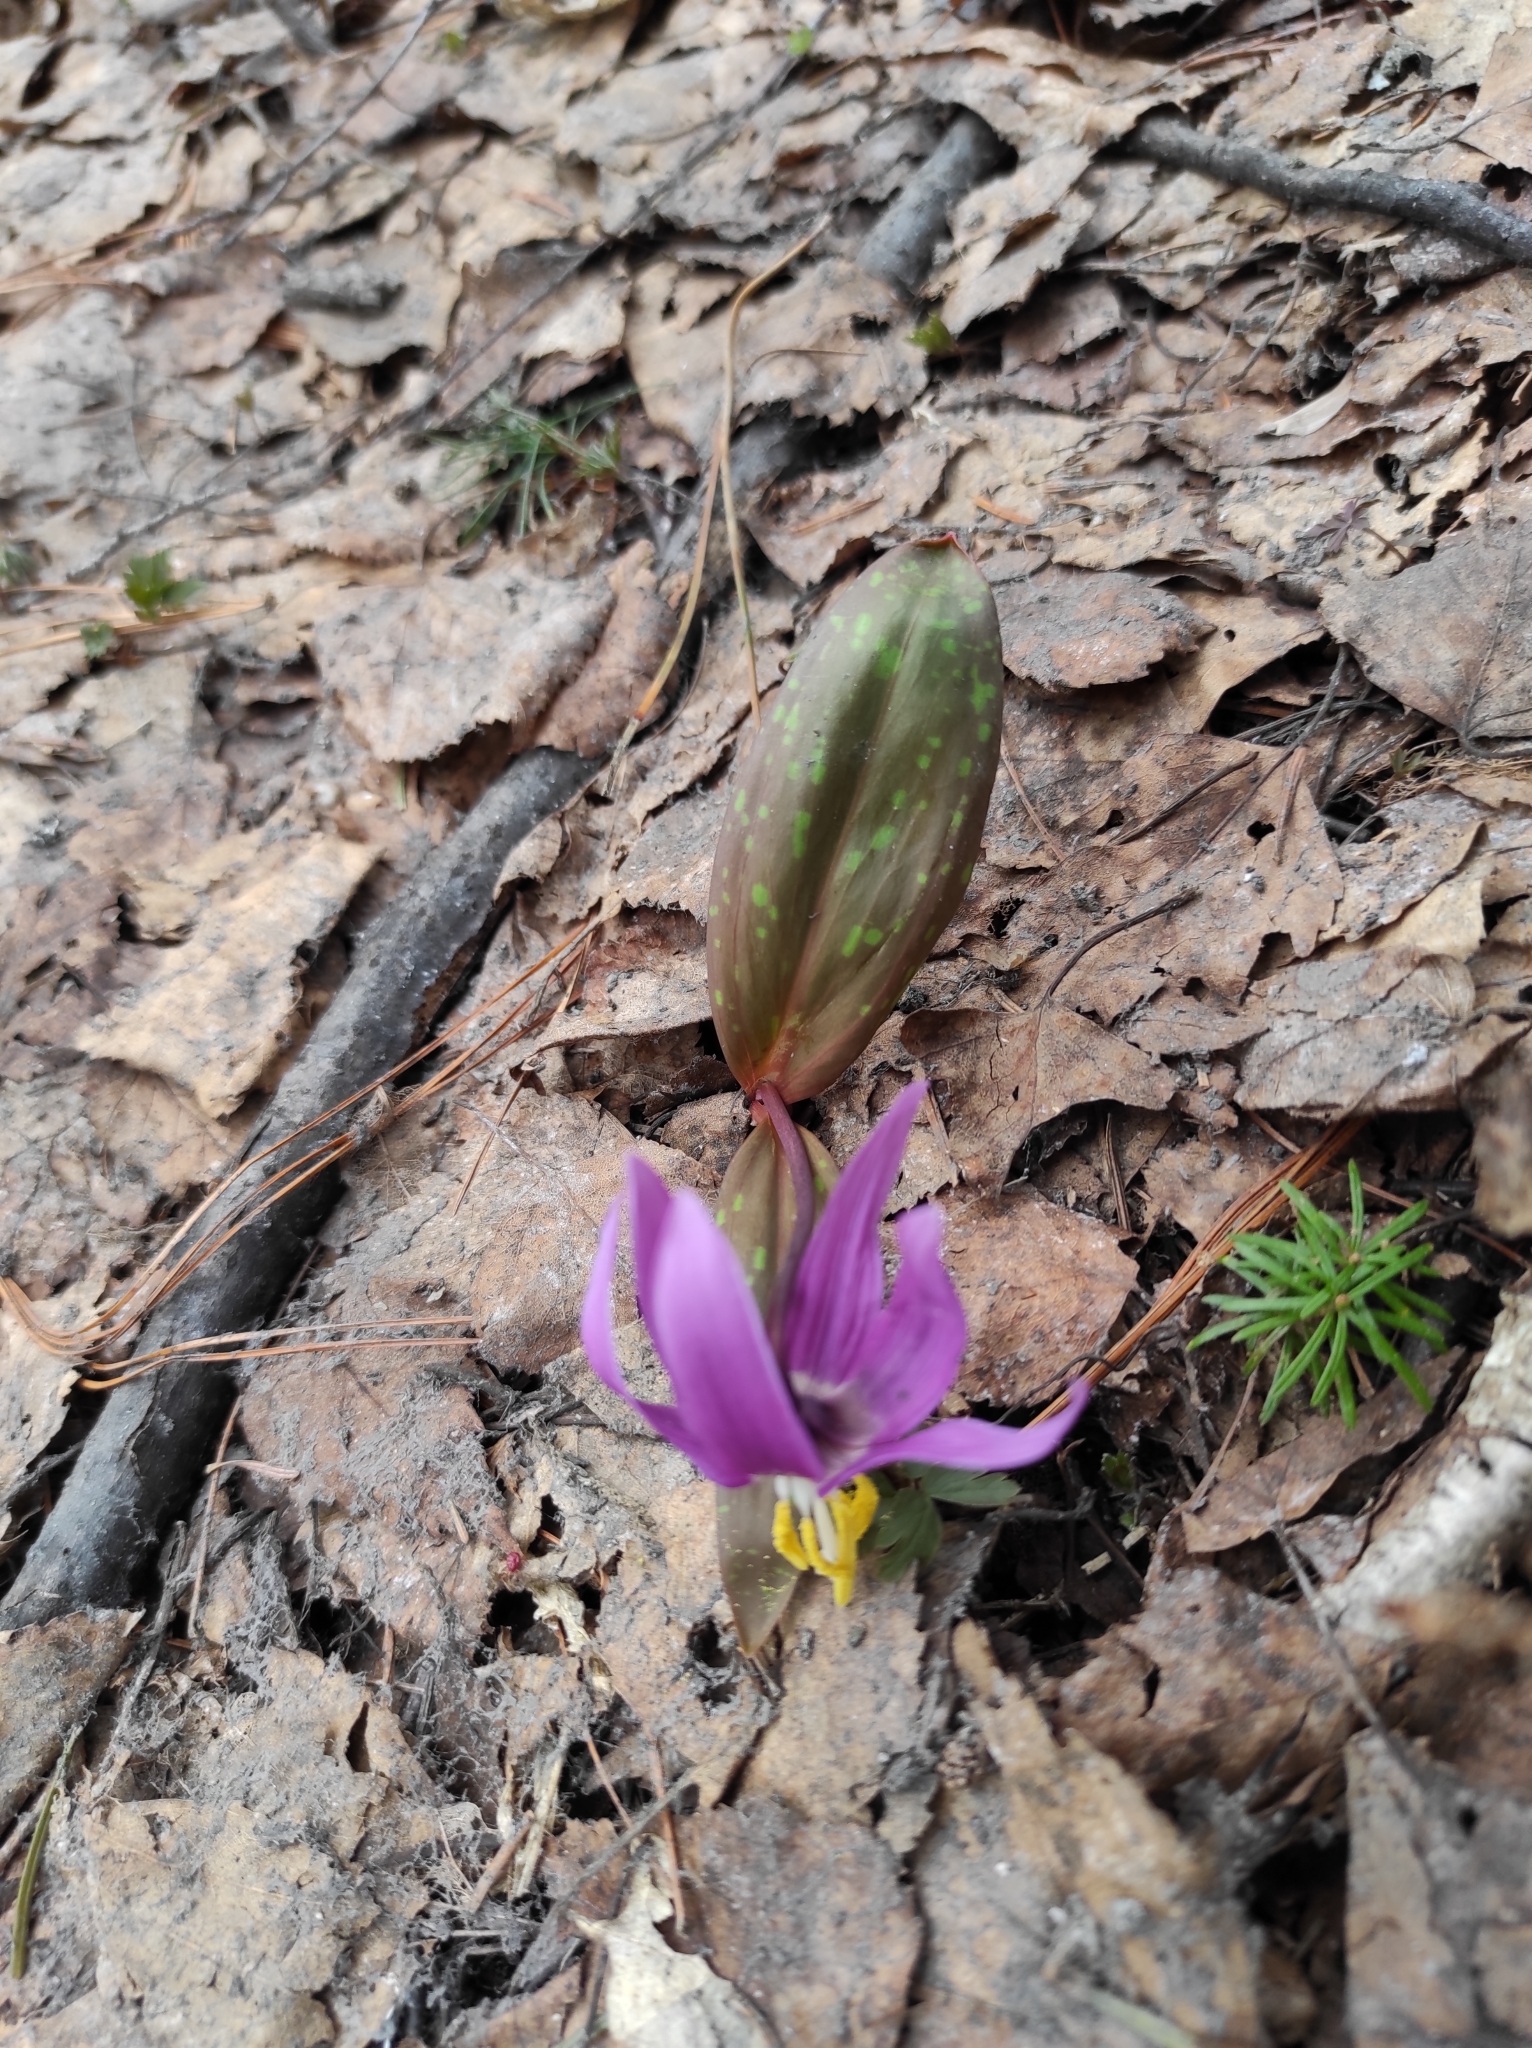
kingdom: Plantae
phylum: Tracheophyta
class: Liliopsida
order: Liliales
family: Liliaceae
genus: Erythronium
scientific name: Erythronium sibiricum
